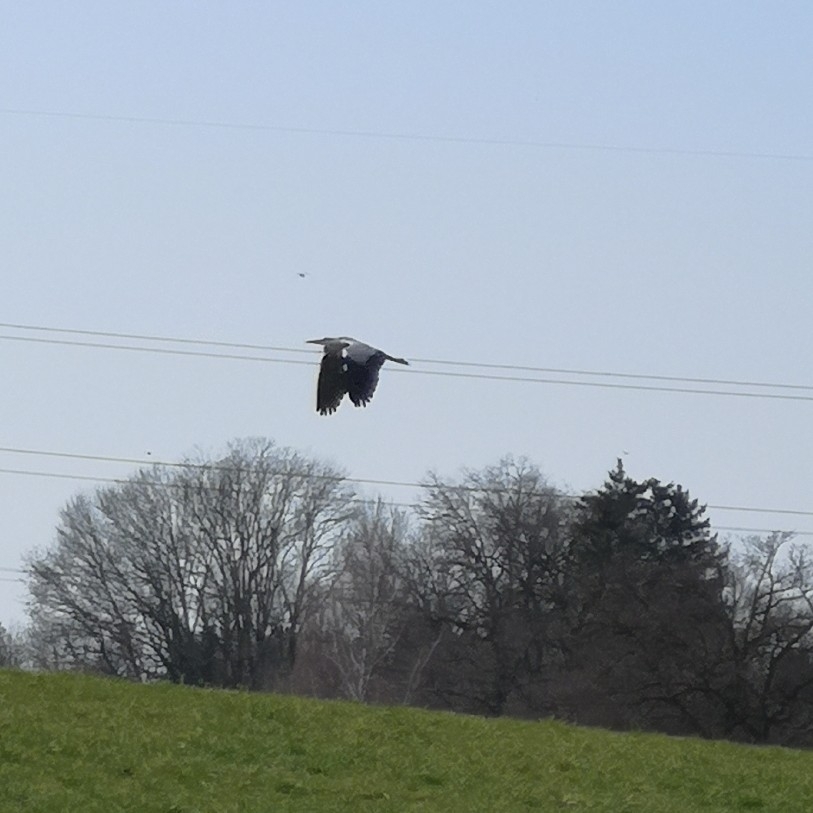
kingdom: Animalia
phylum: Chordata
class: Aves
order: Pelecaniformes
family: Ardeidae
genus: Ardea
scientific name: Ardea cinerea
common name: Grey heron
